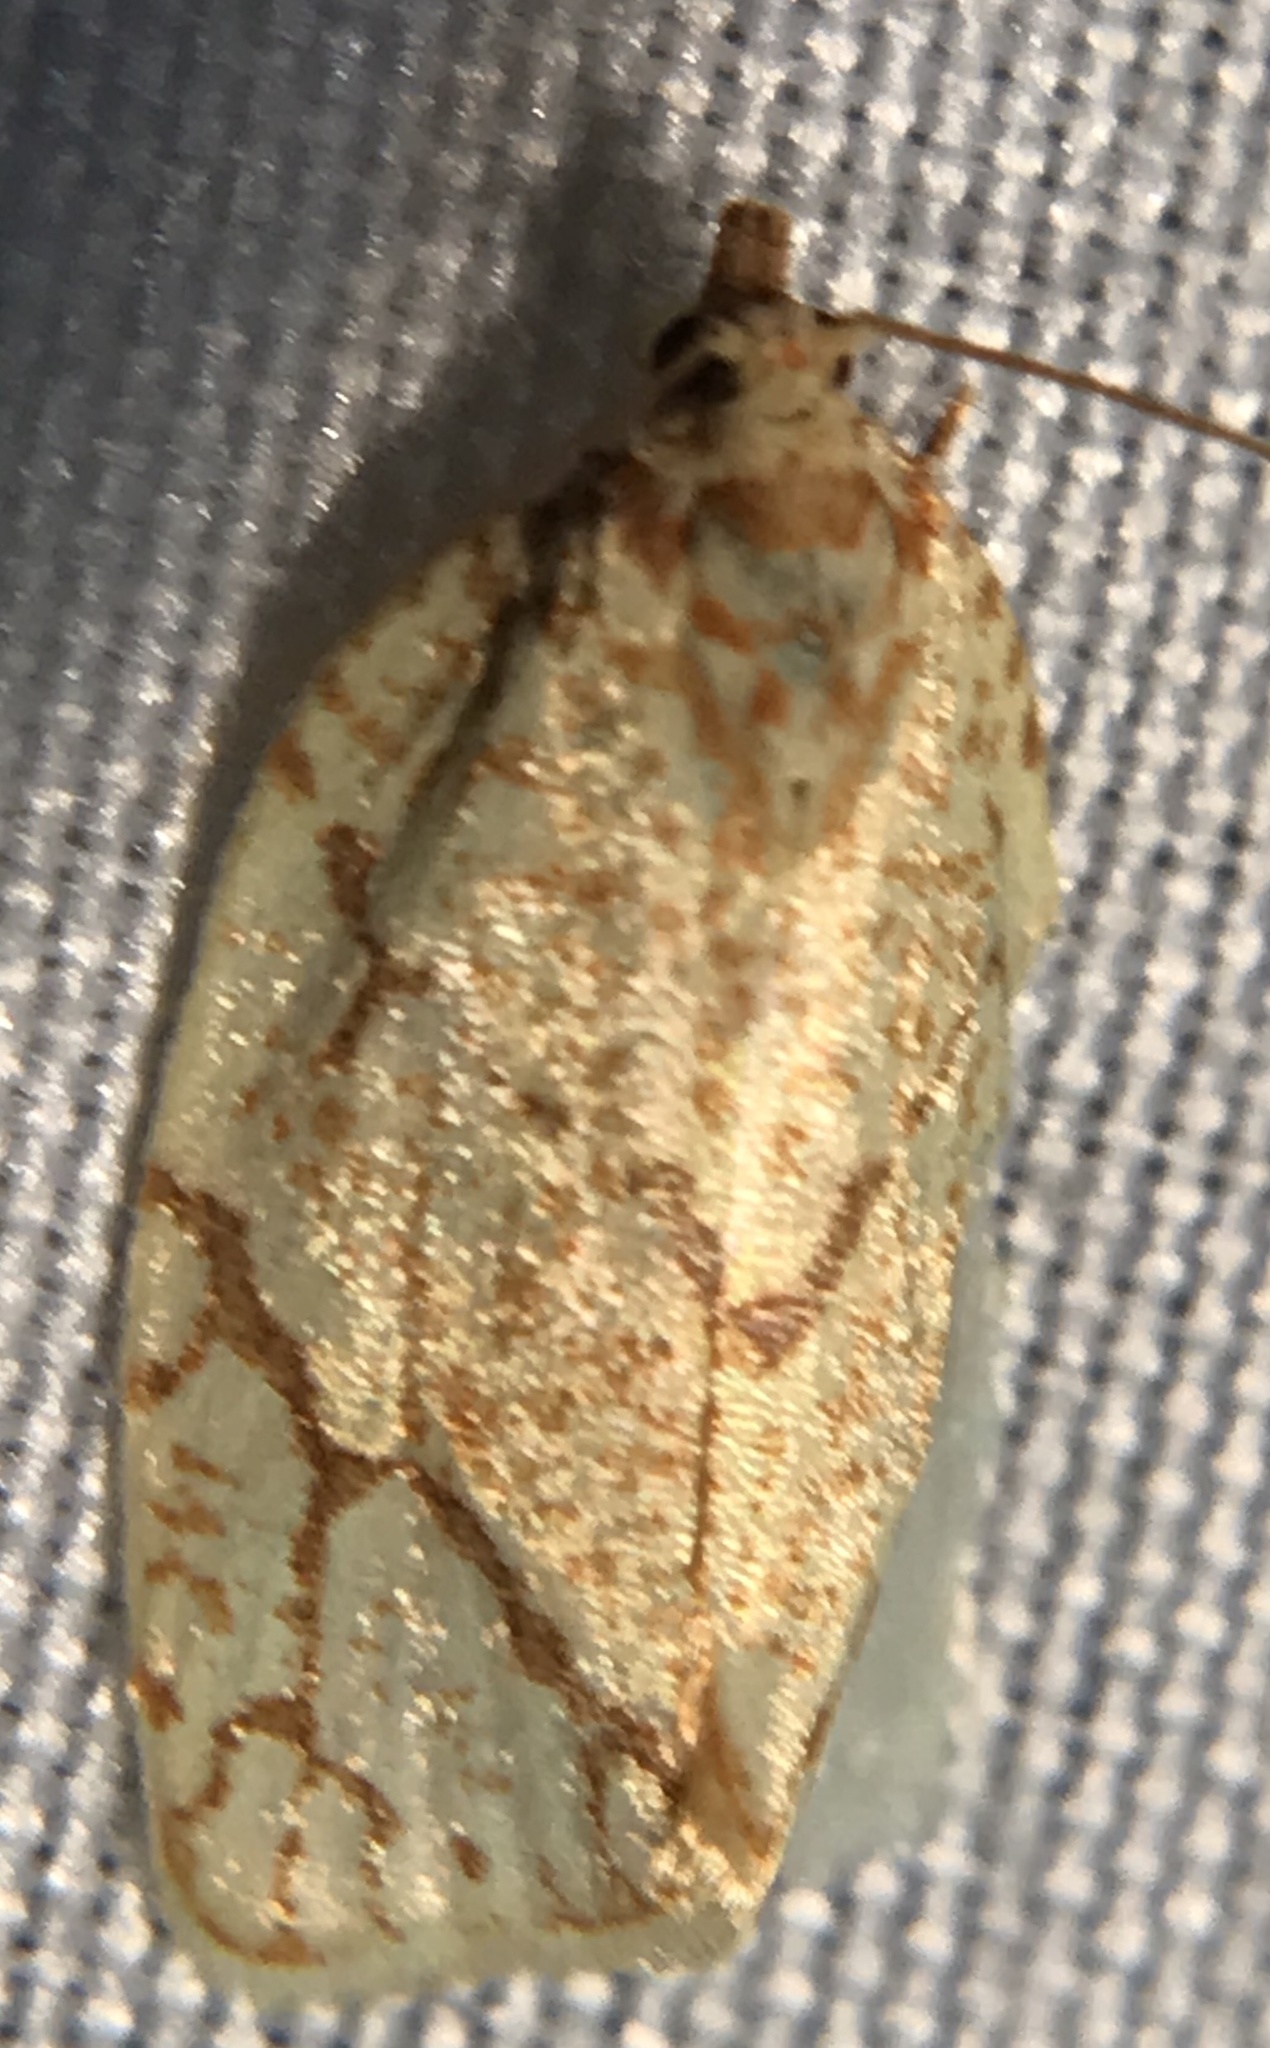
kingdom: Animalia
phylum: Arthropoda
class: Insecta
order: Lepidoptera
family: Tortricidae
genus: Argyrotaenia
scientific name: Argyrotaenia quercifoliana
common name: Yellow-winged oak leafroller moth
